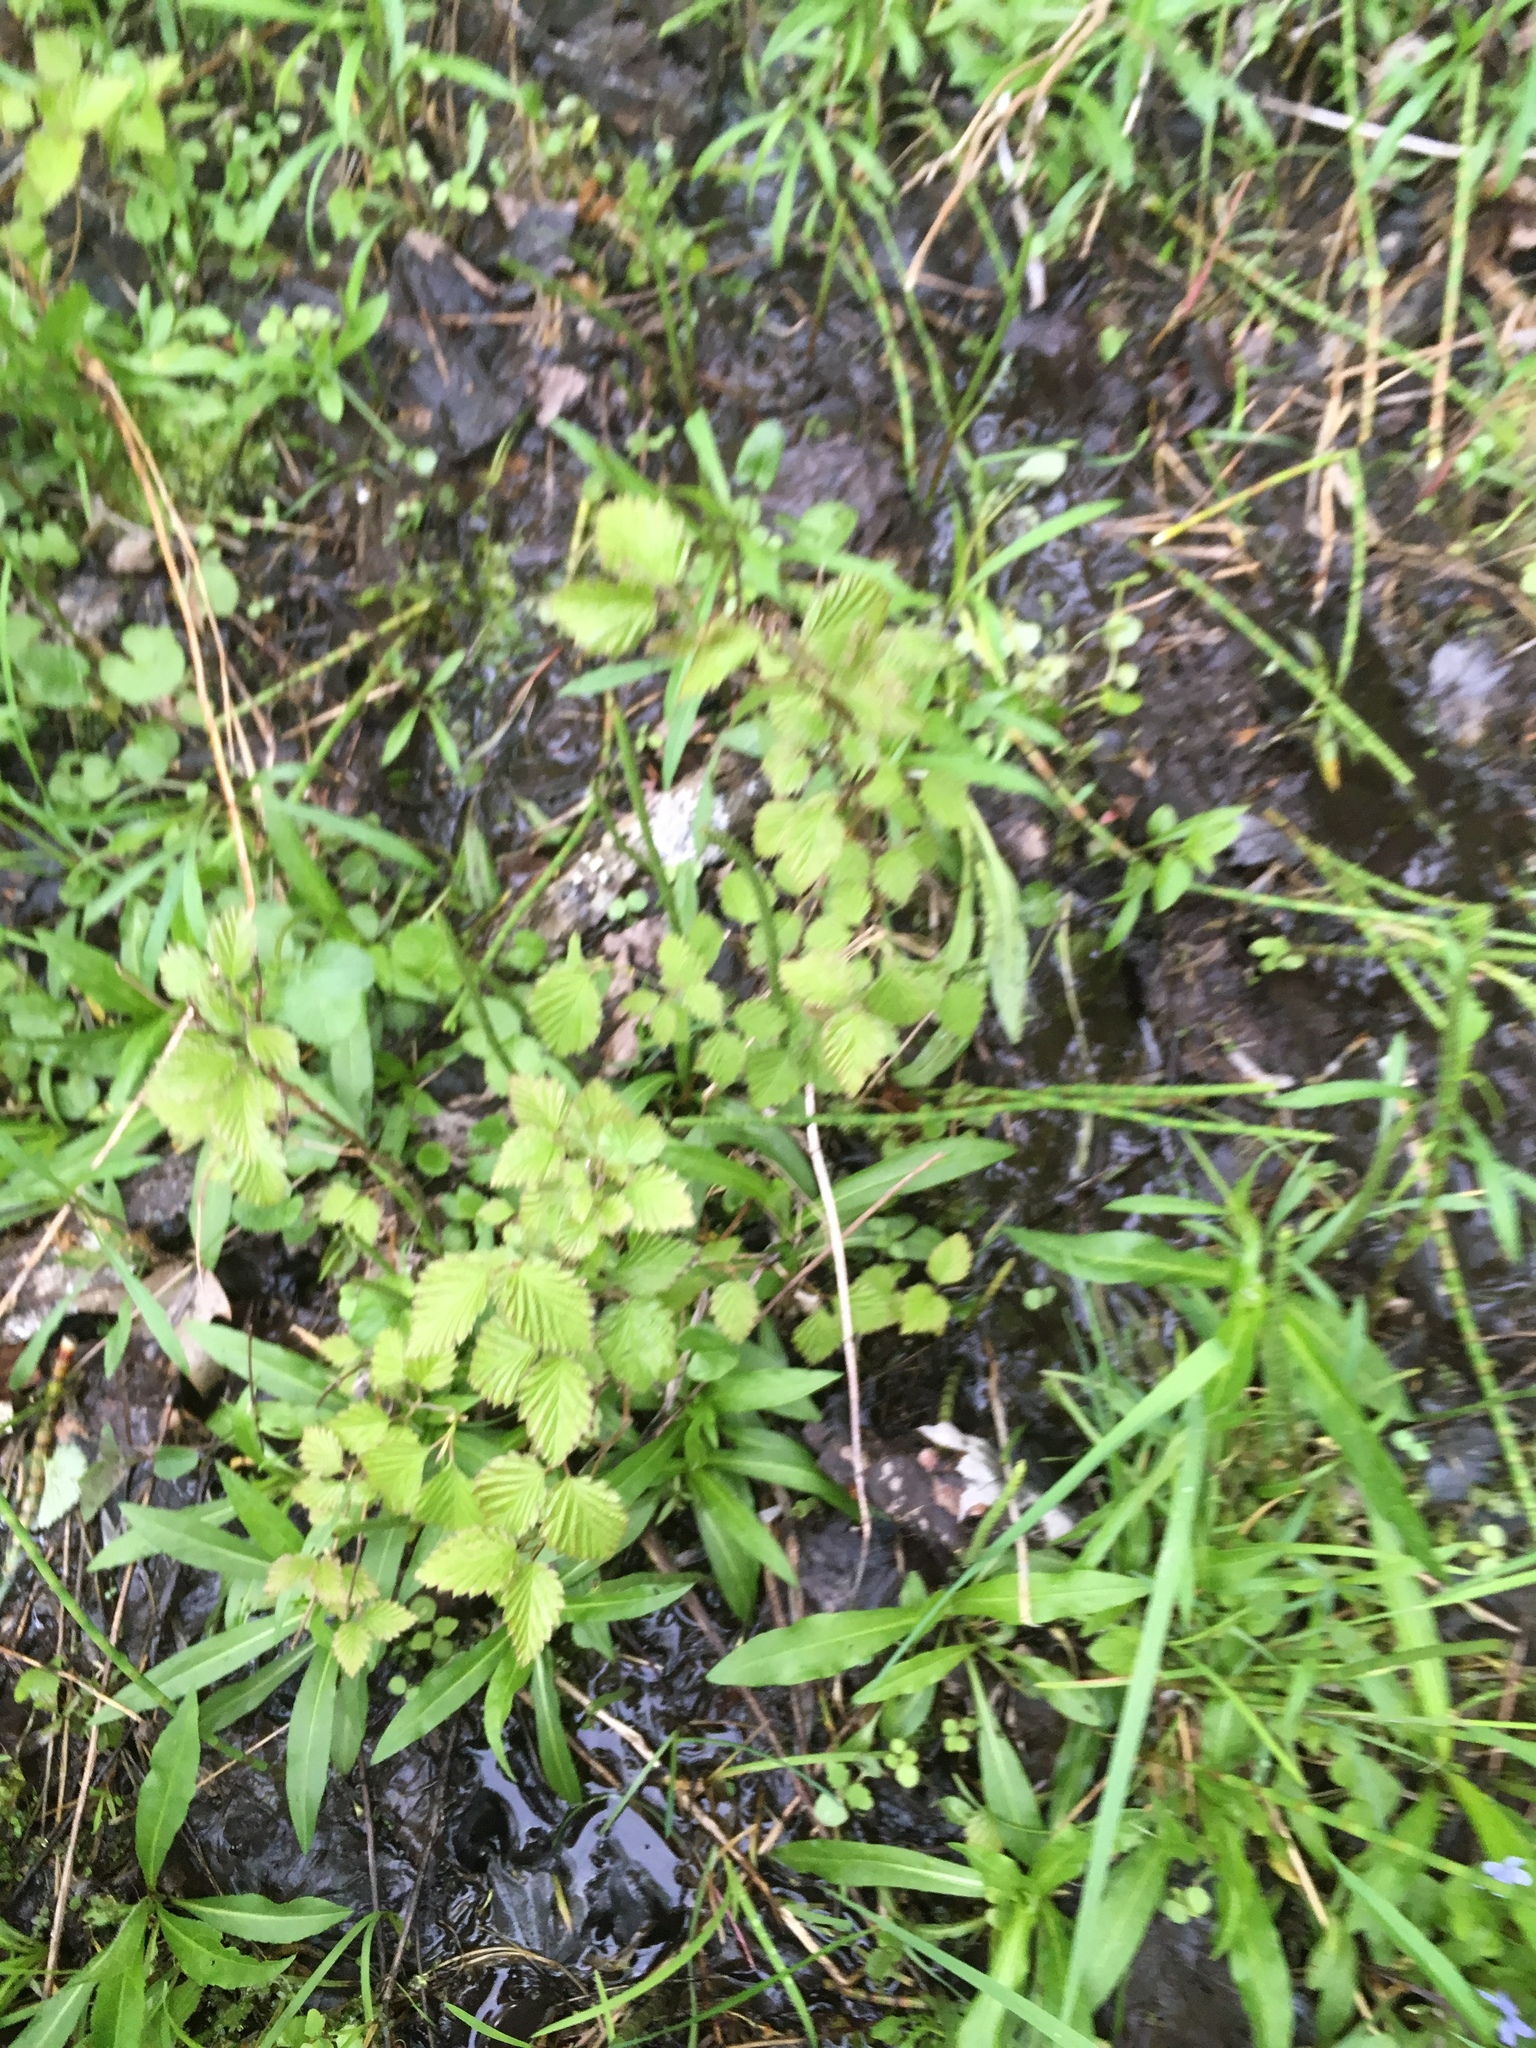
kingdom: Plantae
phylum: Tracheophyta
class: Magnoliopsida
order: Dipsacales
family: Viburnaceae
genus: Viburnum
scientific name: Viburnum dentatum
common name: Arrow-wood
